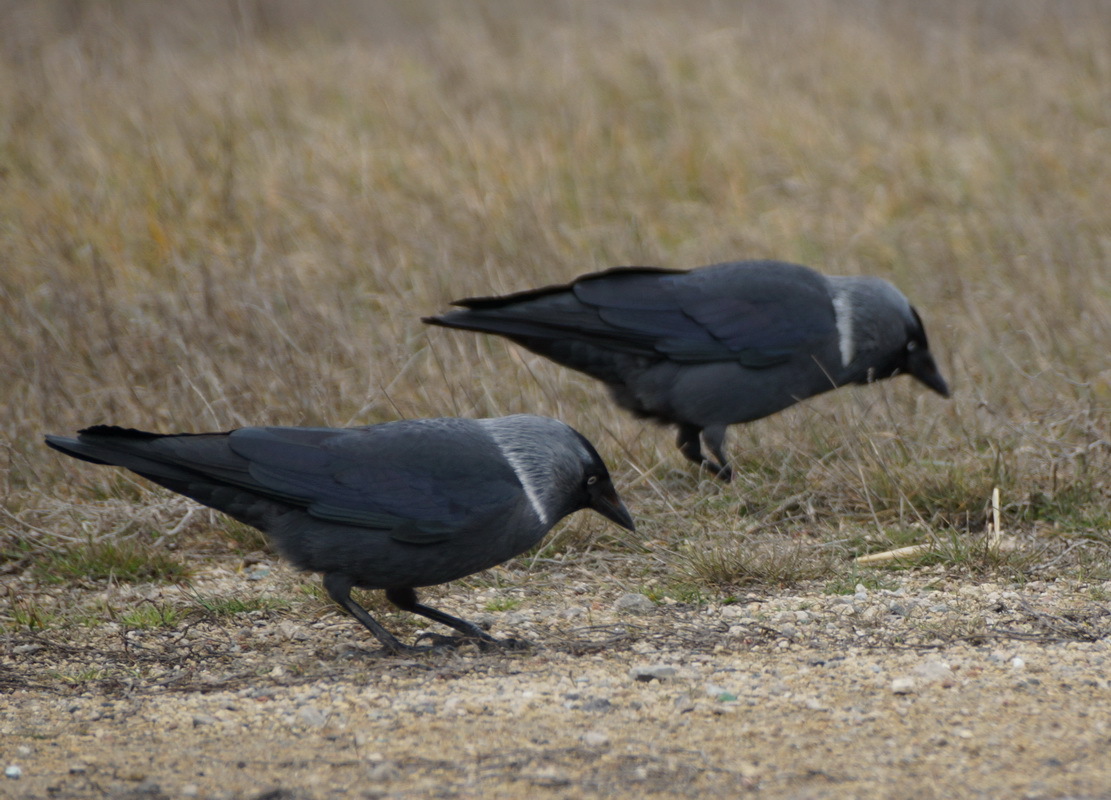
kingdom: Animalia
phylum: Chordata
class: Aves
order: Passeriformes
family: Corvidae
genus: Coloeus
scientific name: Coloeus monedula
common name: Western jackdaw
